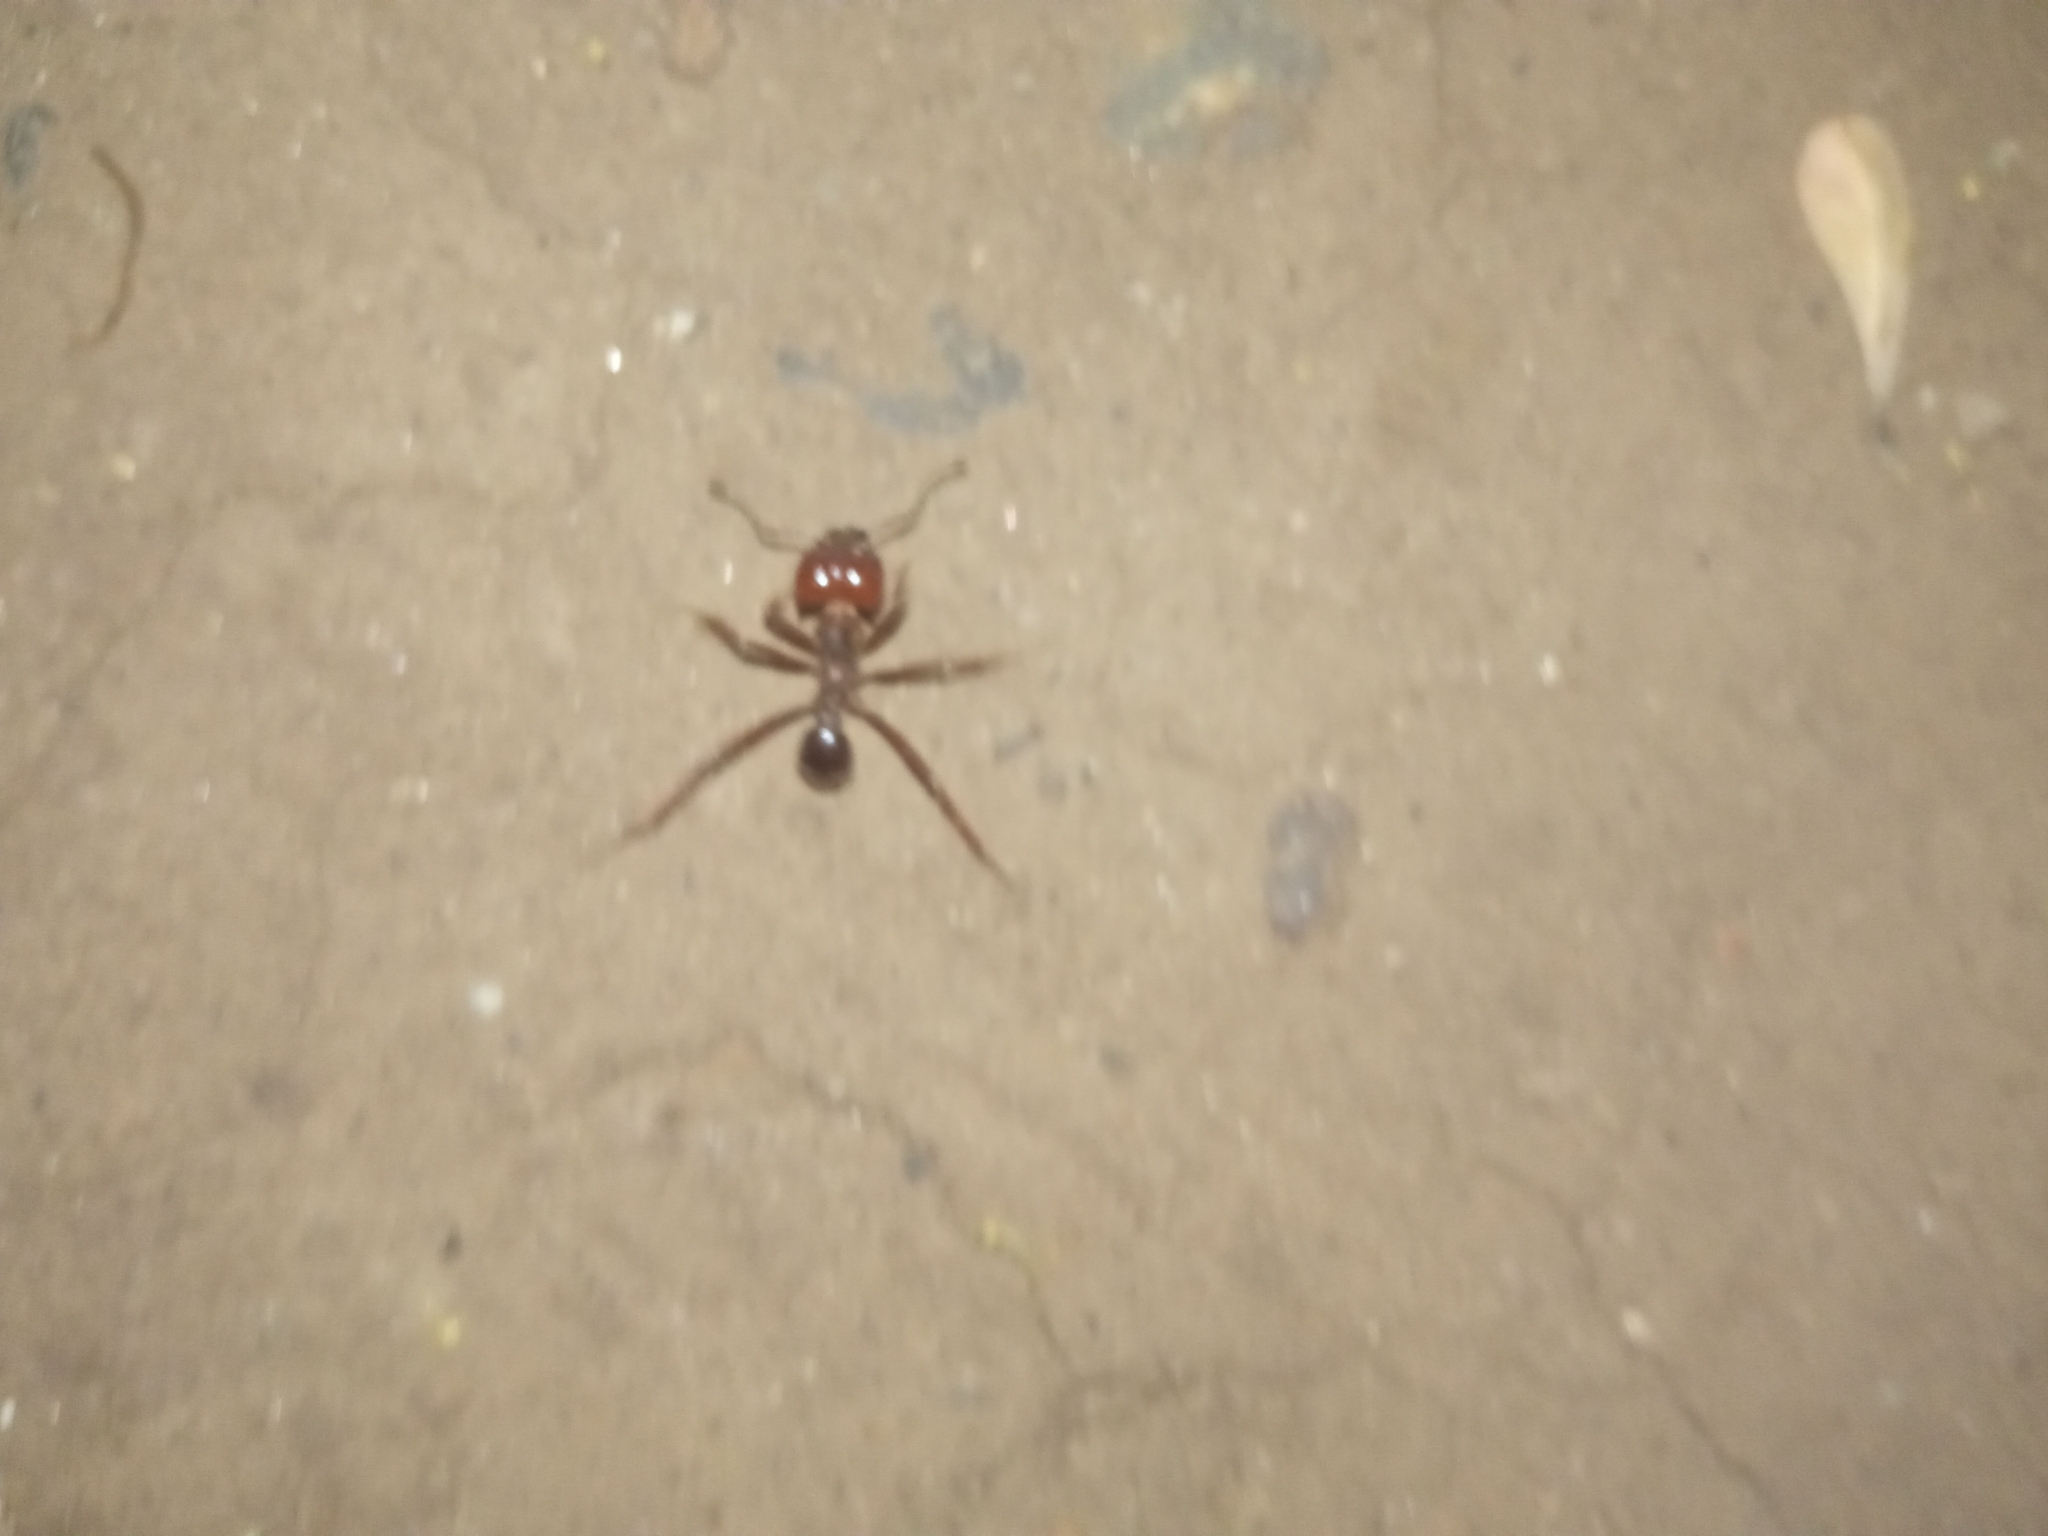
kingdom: Animalia
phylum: Arthropoda
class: Insecta
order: Hymenoptera
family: Formicidae
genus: Atta
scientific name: Atta mexicana
